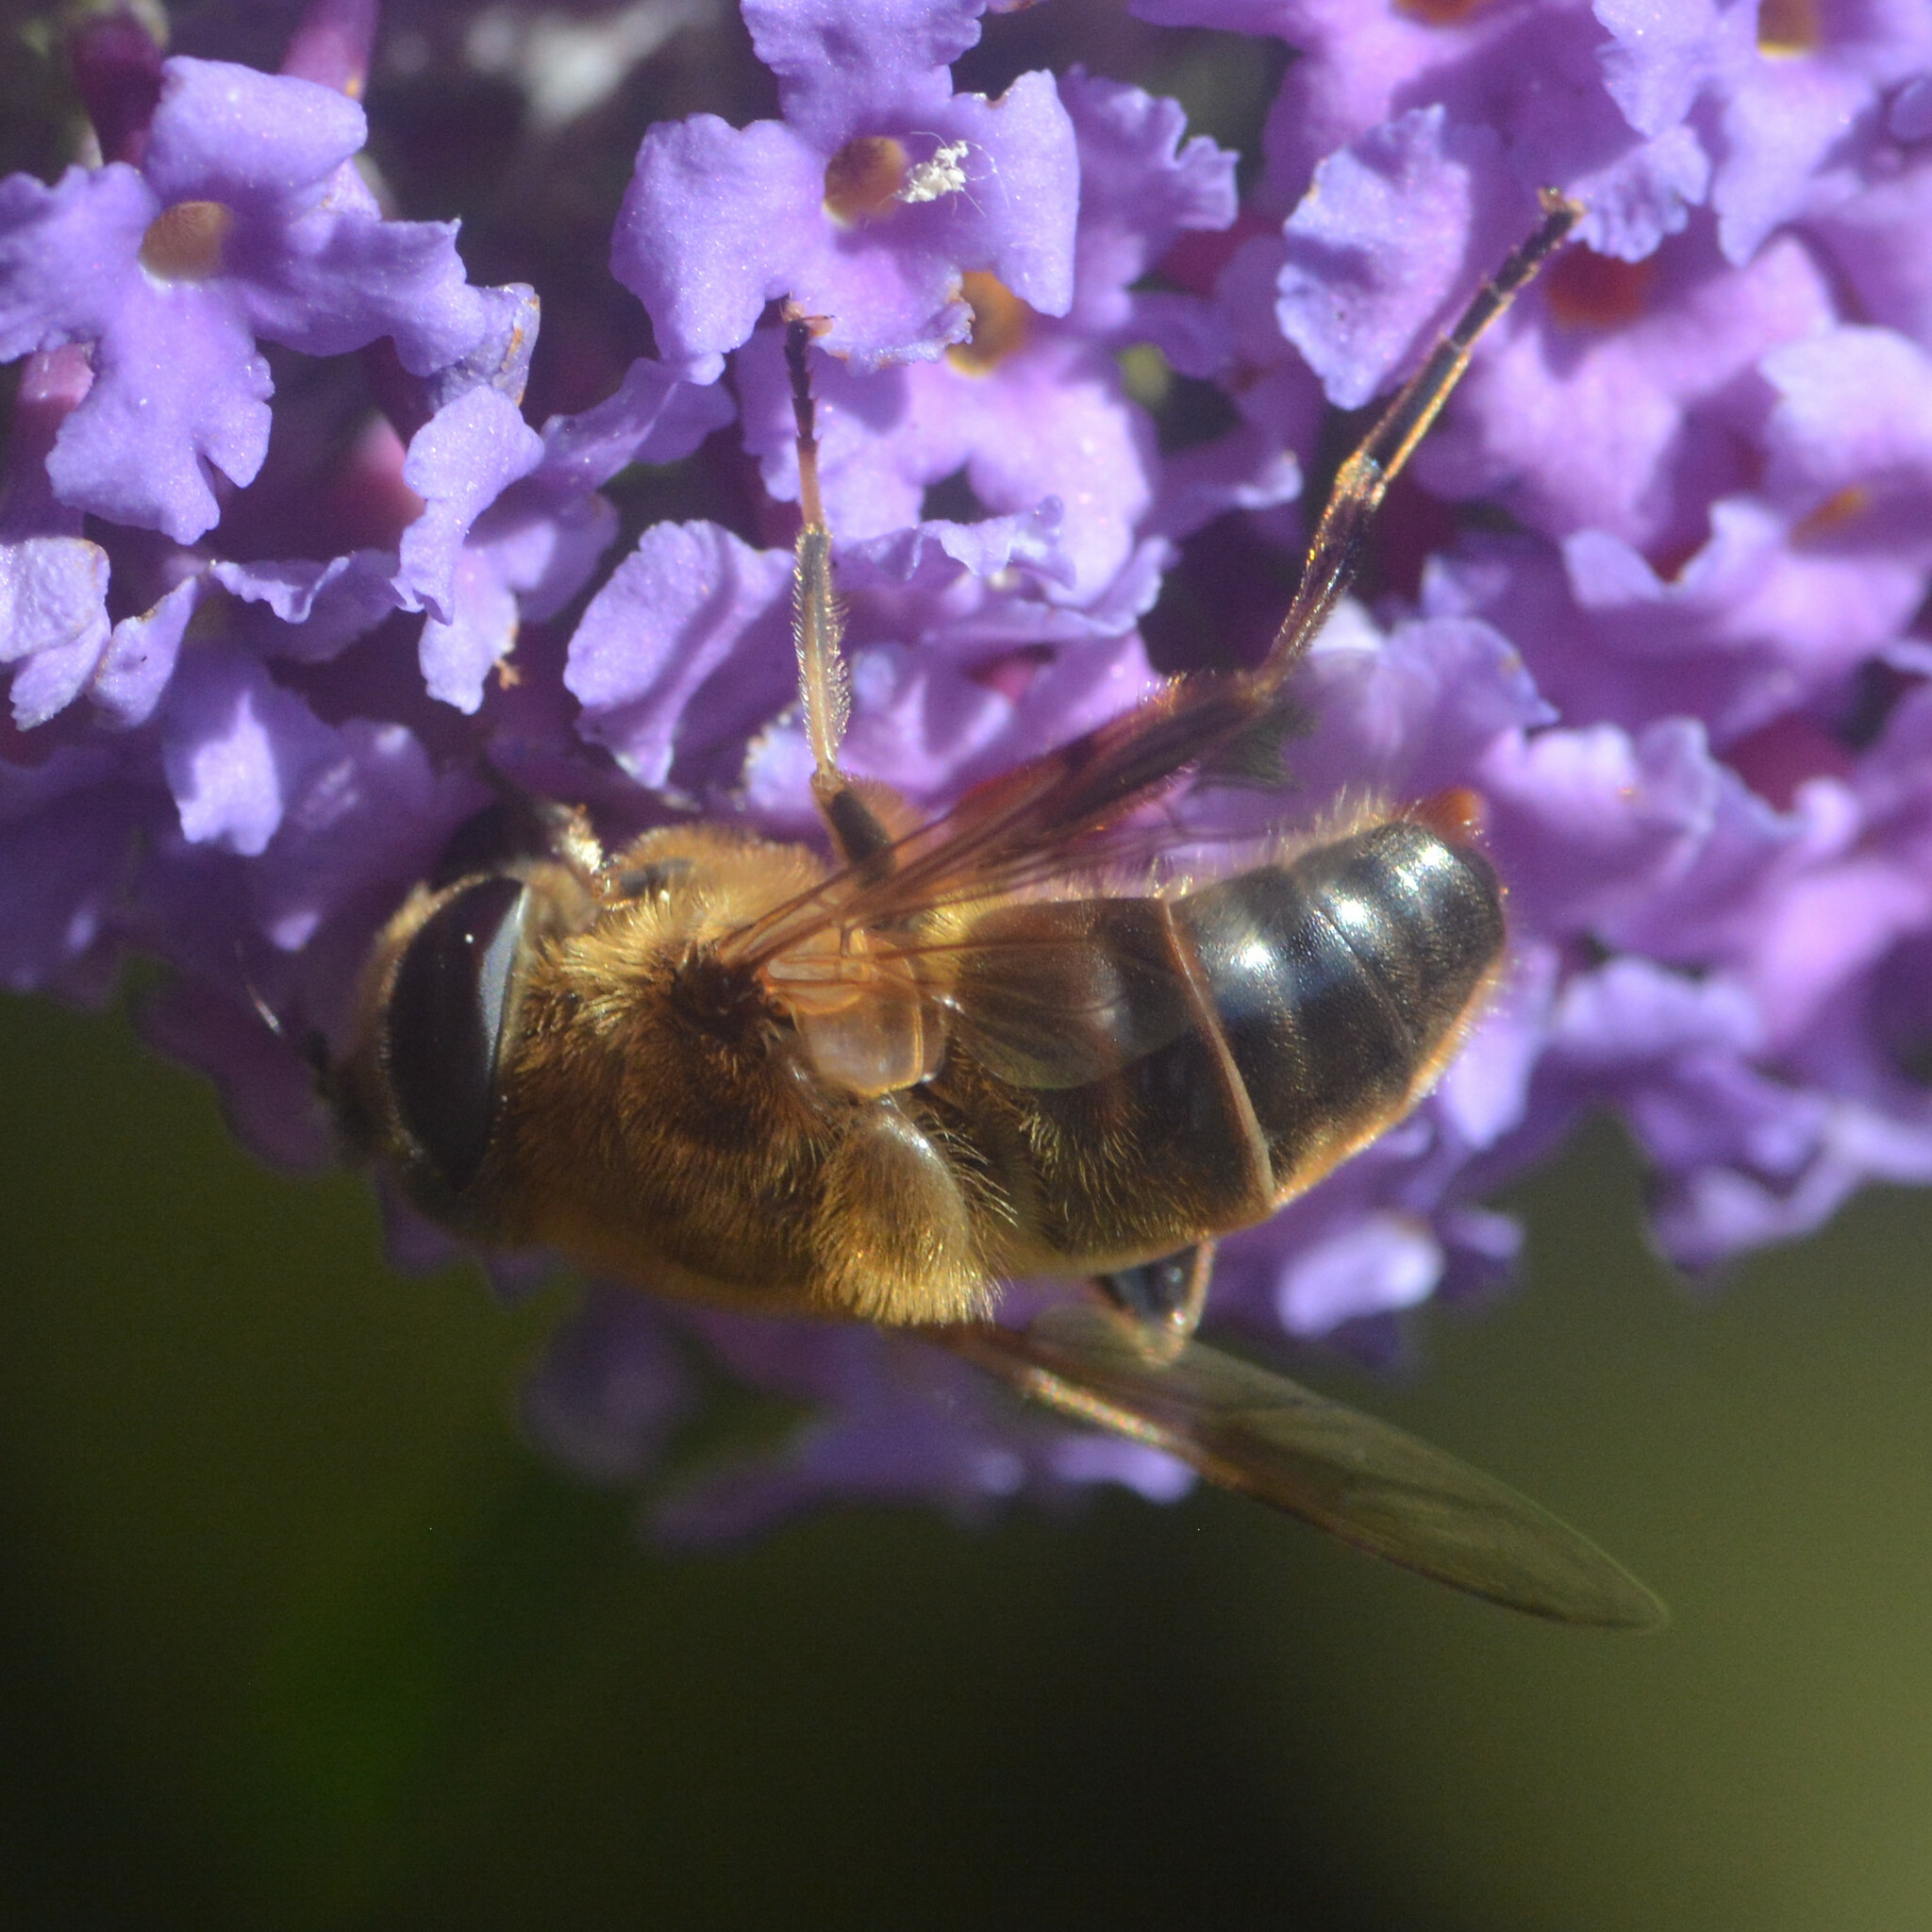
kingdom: Animalia
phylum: Arthropoda
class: Insecta
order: Diptera
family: Syrphidae
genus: Eristalis
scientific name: Eristalis tenax
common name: Drone fly
